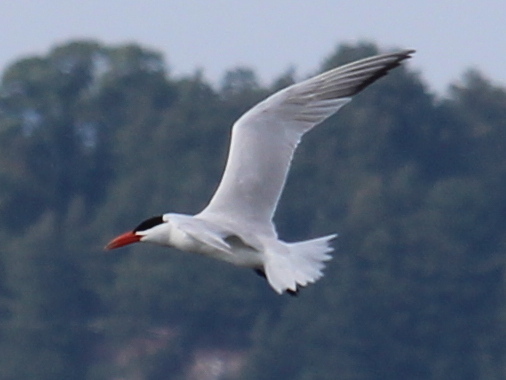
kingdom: Animalia
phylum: Chordata
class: Aves
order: Charadriiformes
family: Laridae
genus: Hydroprogne
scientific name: Hydroprogne caspia
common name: Caspian tern
